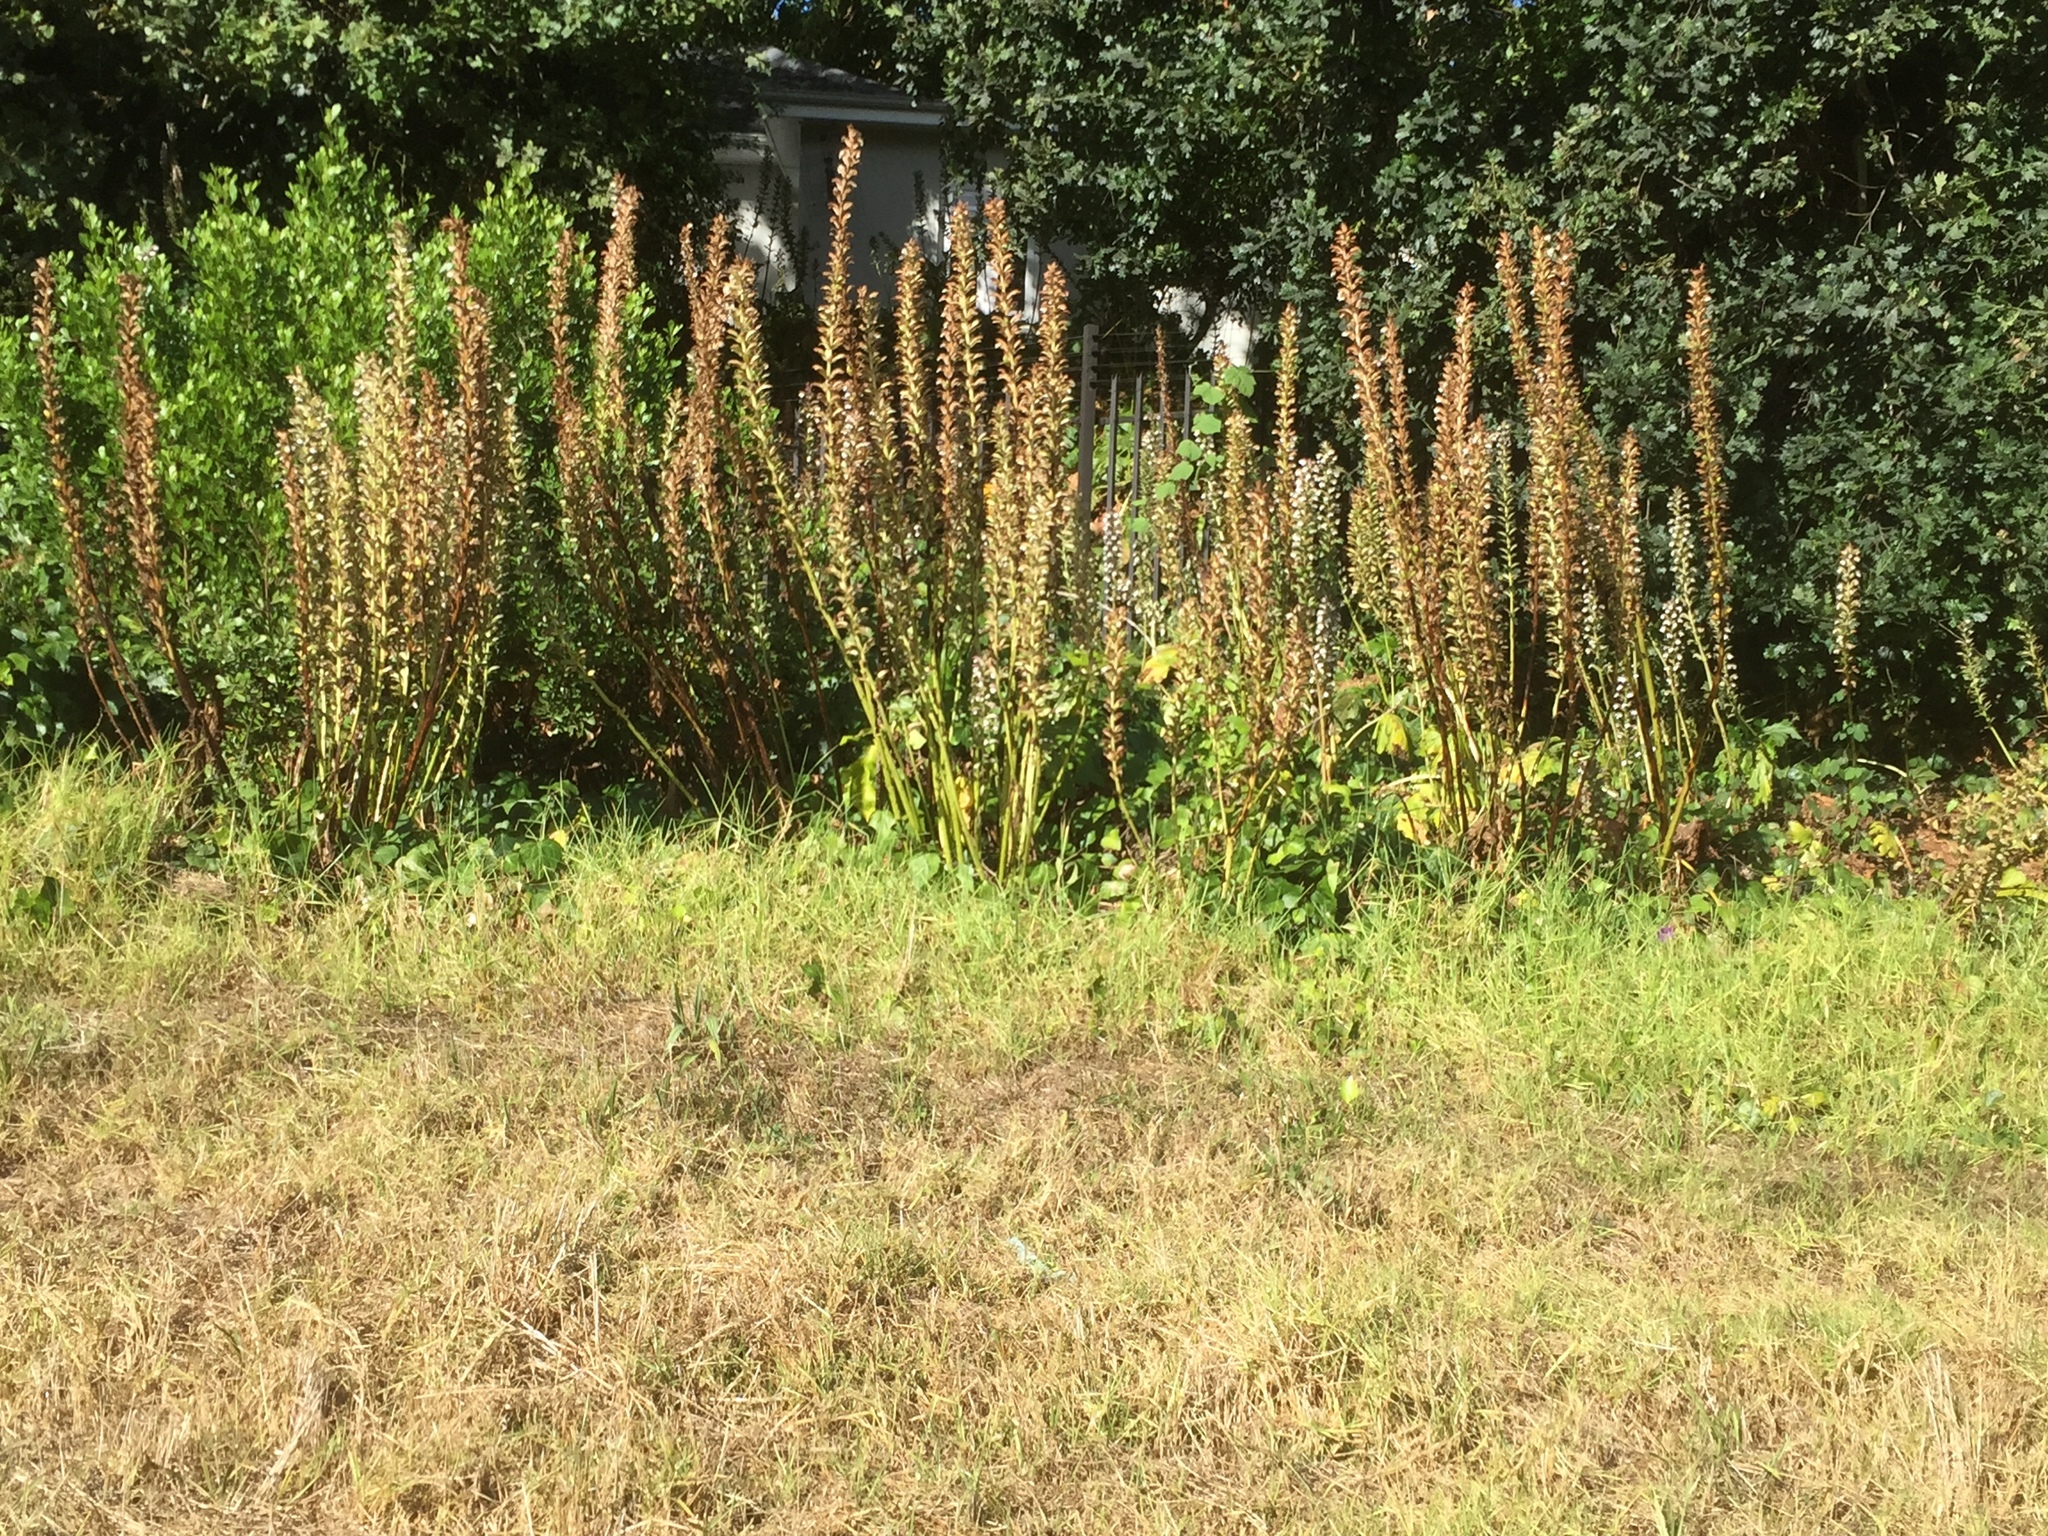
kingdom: Plantae
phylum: Tracheophyta
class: Magnoliopsida
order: Lamiales
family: Acanthaceae
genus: Acanthus
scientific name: Acanthus mollis
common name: Bear's-breech
